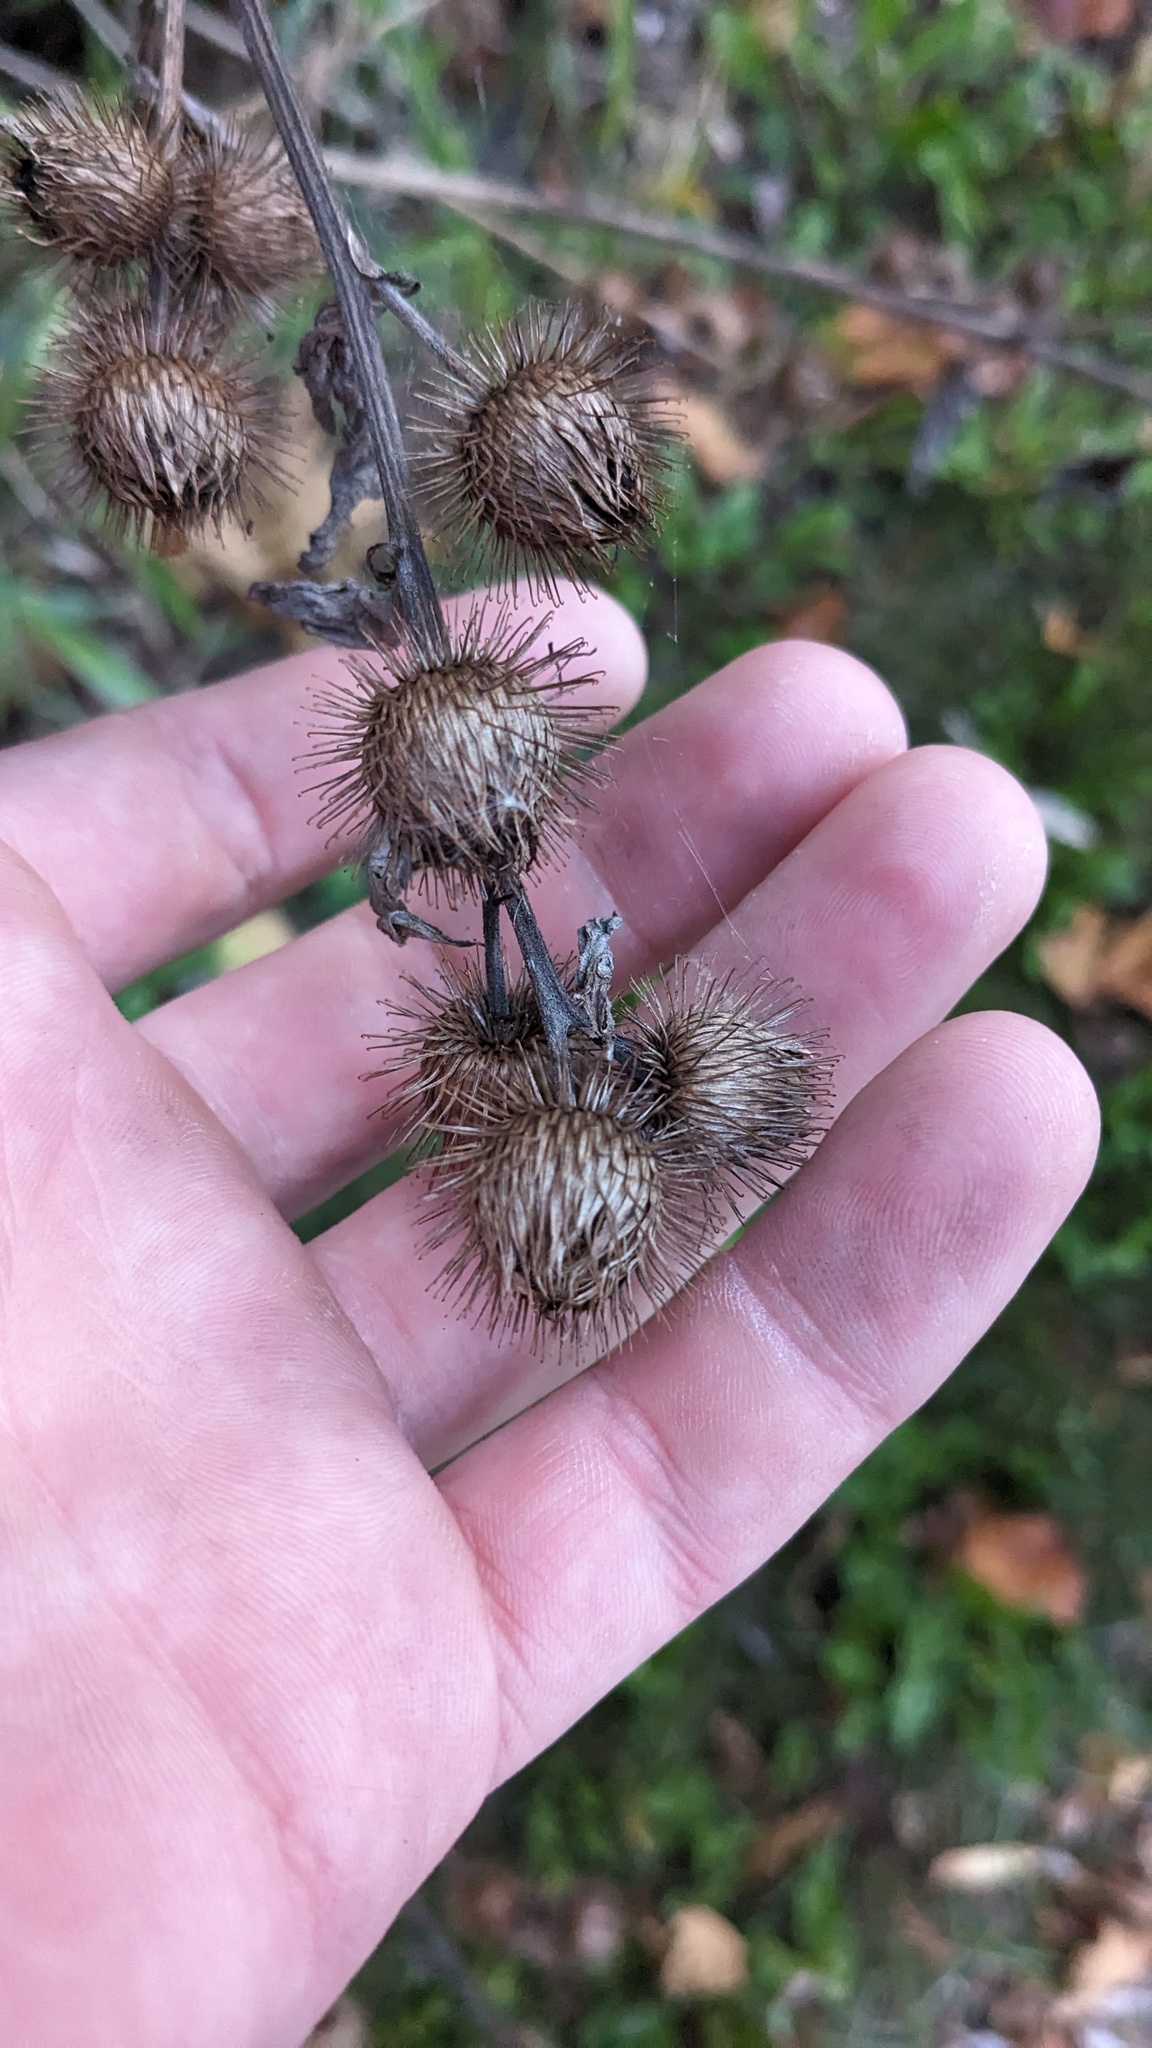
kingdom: Plantae
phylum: Tracheophyta
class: Magnoliopsida
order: Asterales
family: Asteraceae
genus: Arctium
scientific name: Arctium minus
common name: Lesser burdock
